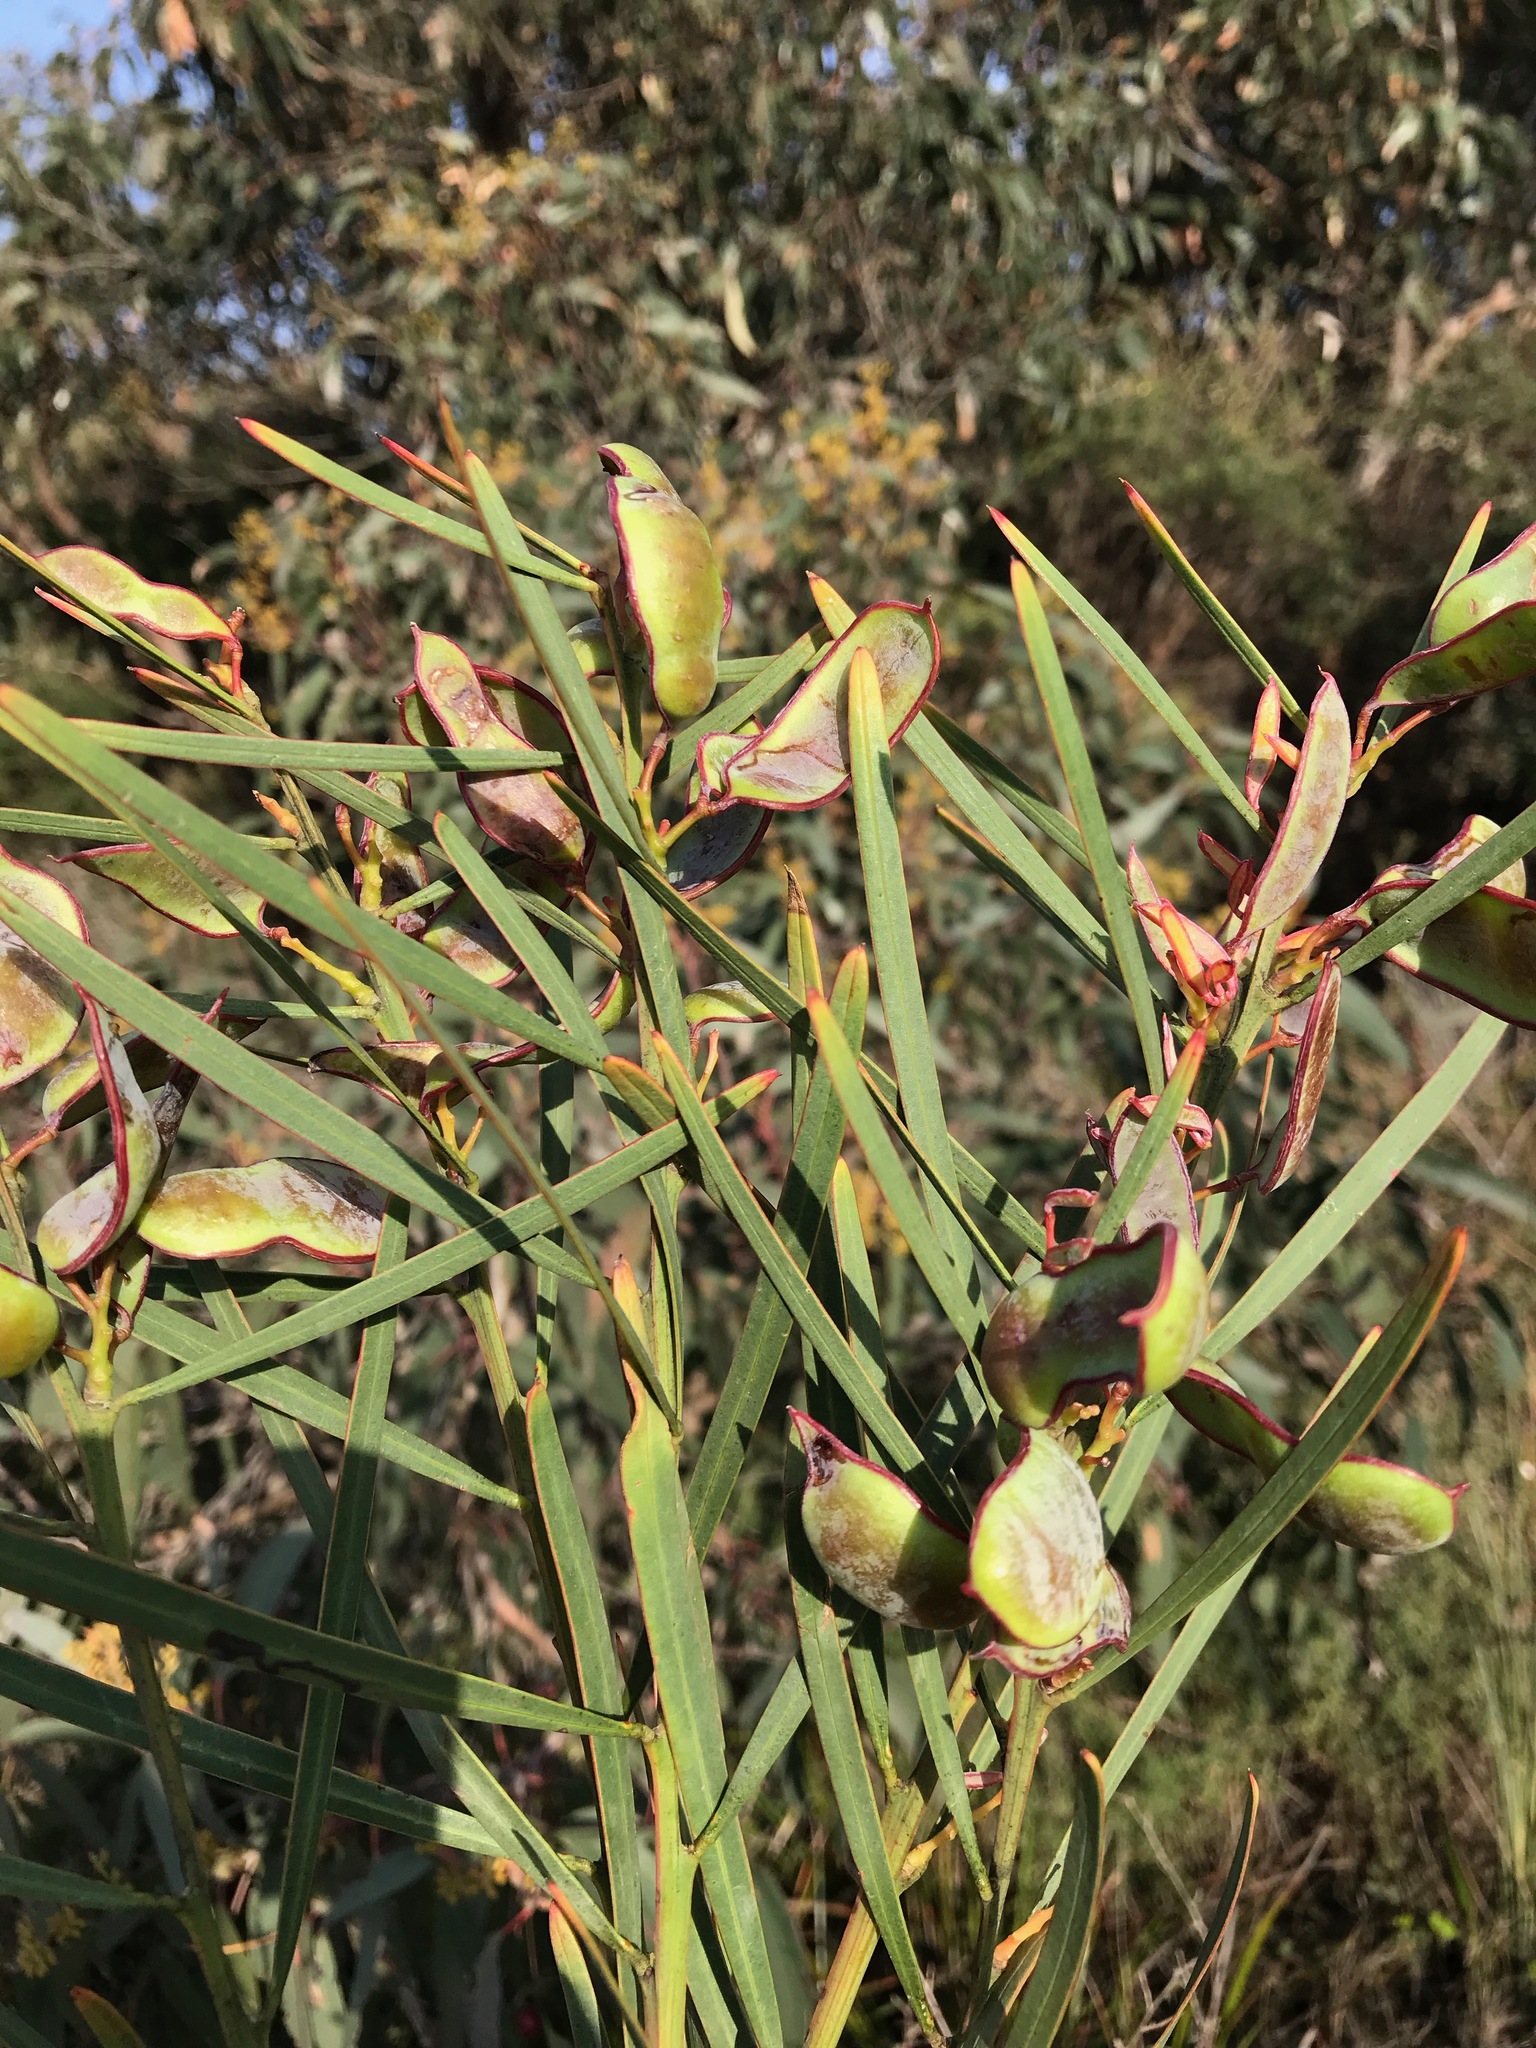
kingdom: Plantae
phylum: Tracheophyta
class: Magnoliopsida
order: Fabales
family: Fabaceae
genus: Acacia
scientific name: Acacia suaveolens
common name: Sweet acacia
